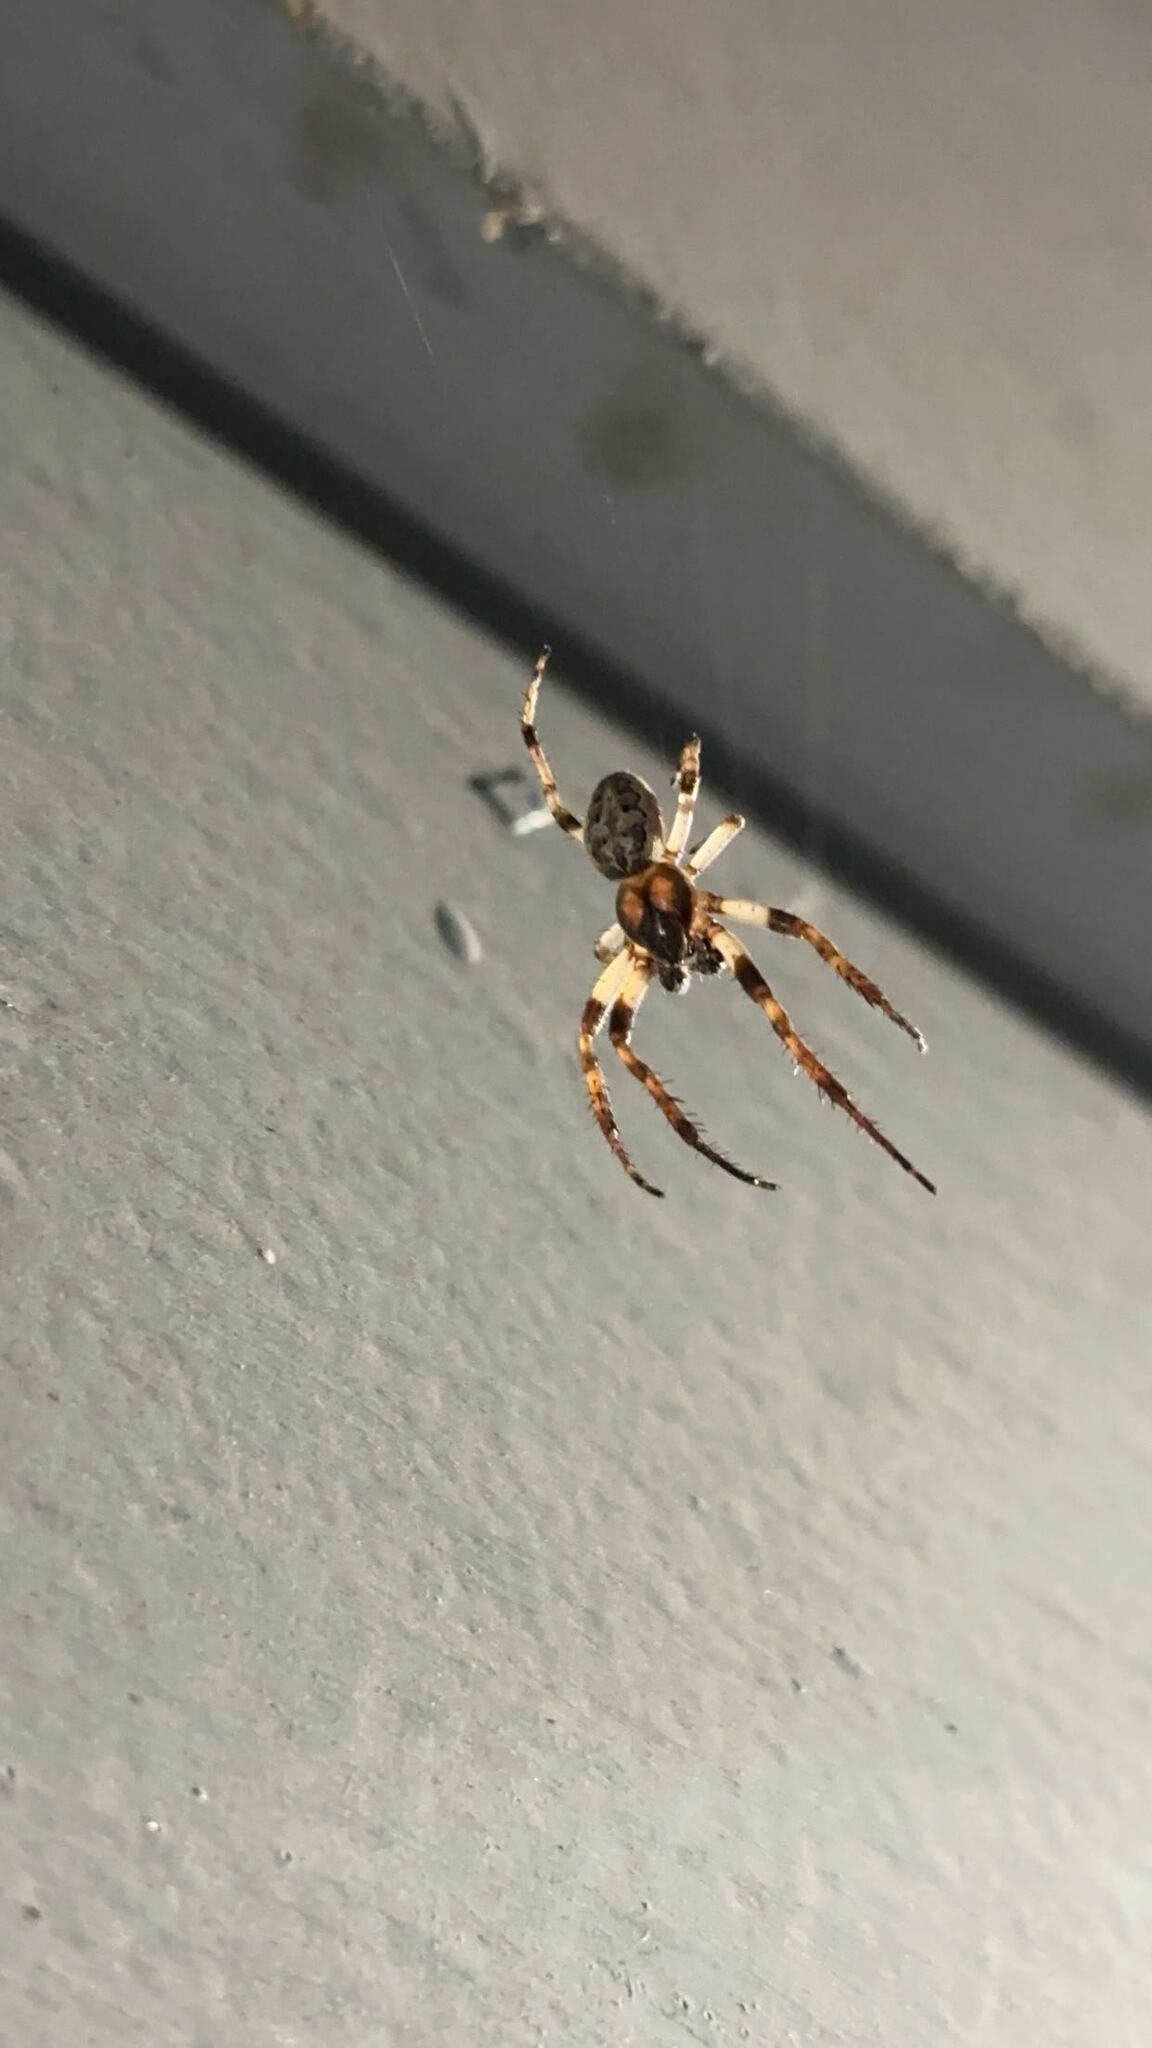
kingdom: Animalia
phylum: Arthropoda
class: Arachnida
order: Araneae
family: Araneidae
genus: Larinioides
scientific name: Larinioides cornutus
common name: Furrow orbweaver
